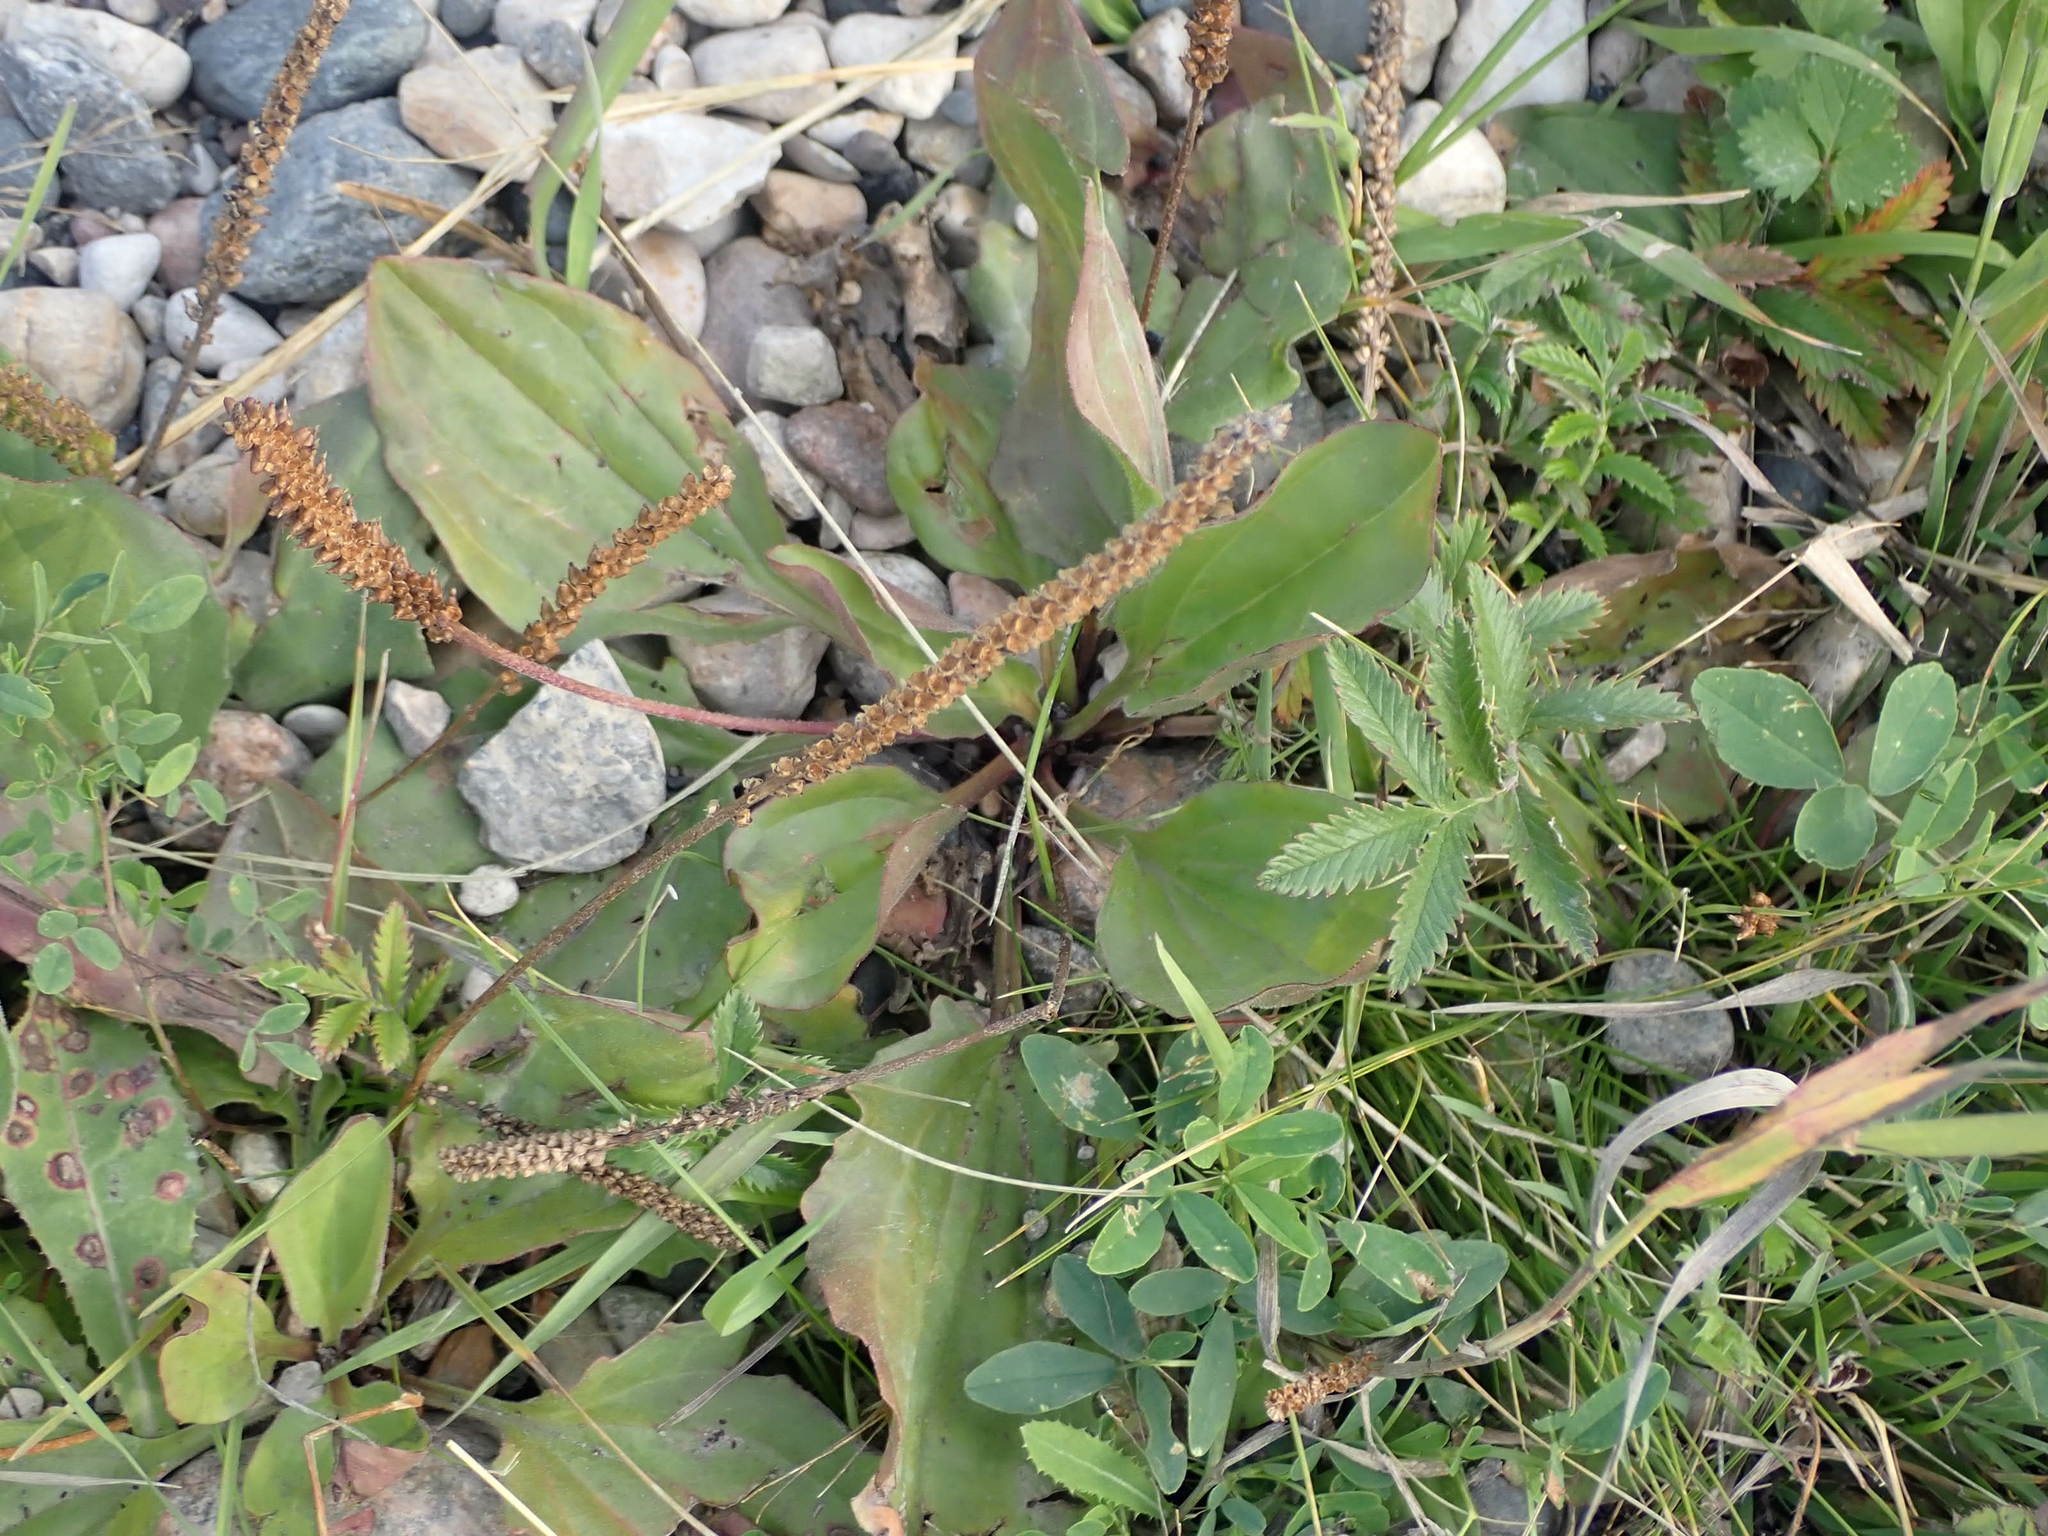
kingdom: Plantae
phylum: Tracheophyta
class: Magnoliopsida
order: Lamiales
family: Plantaginaceae
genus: Plantago
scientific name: Plantago major
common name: Common plantain
